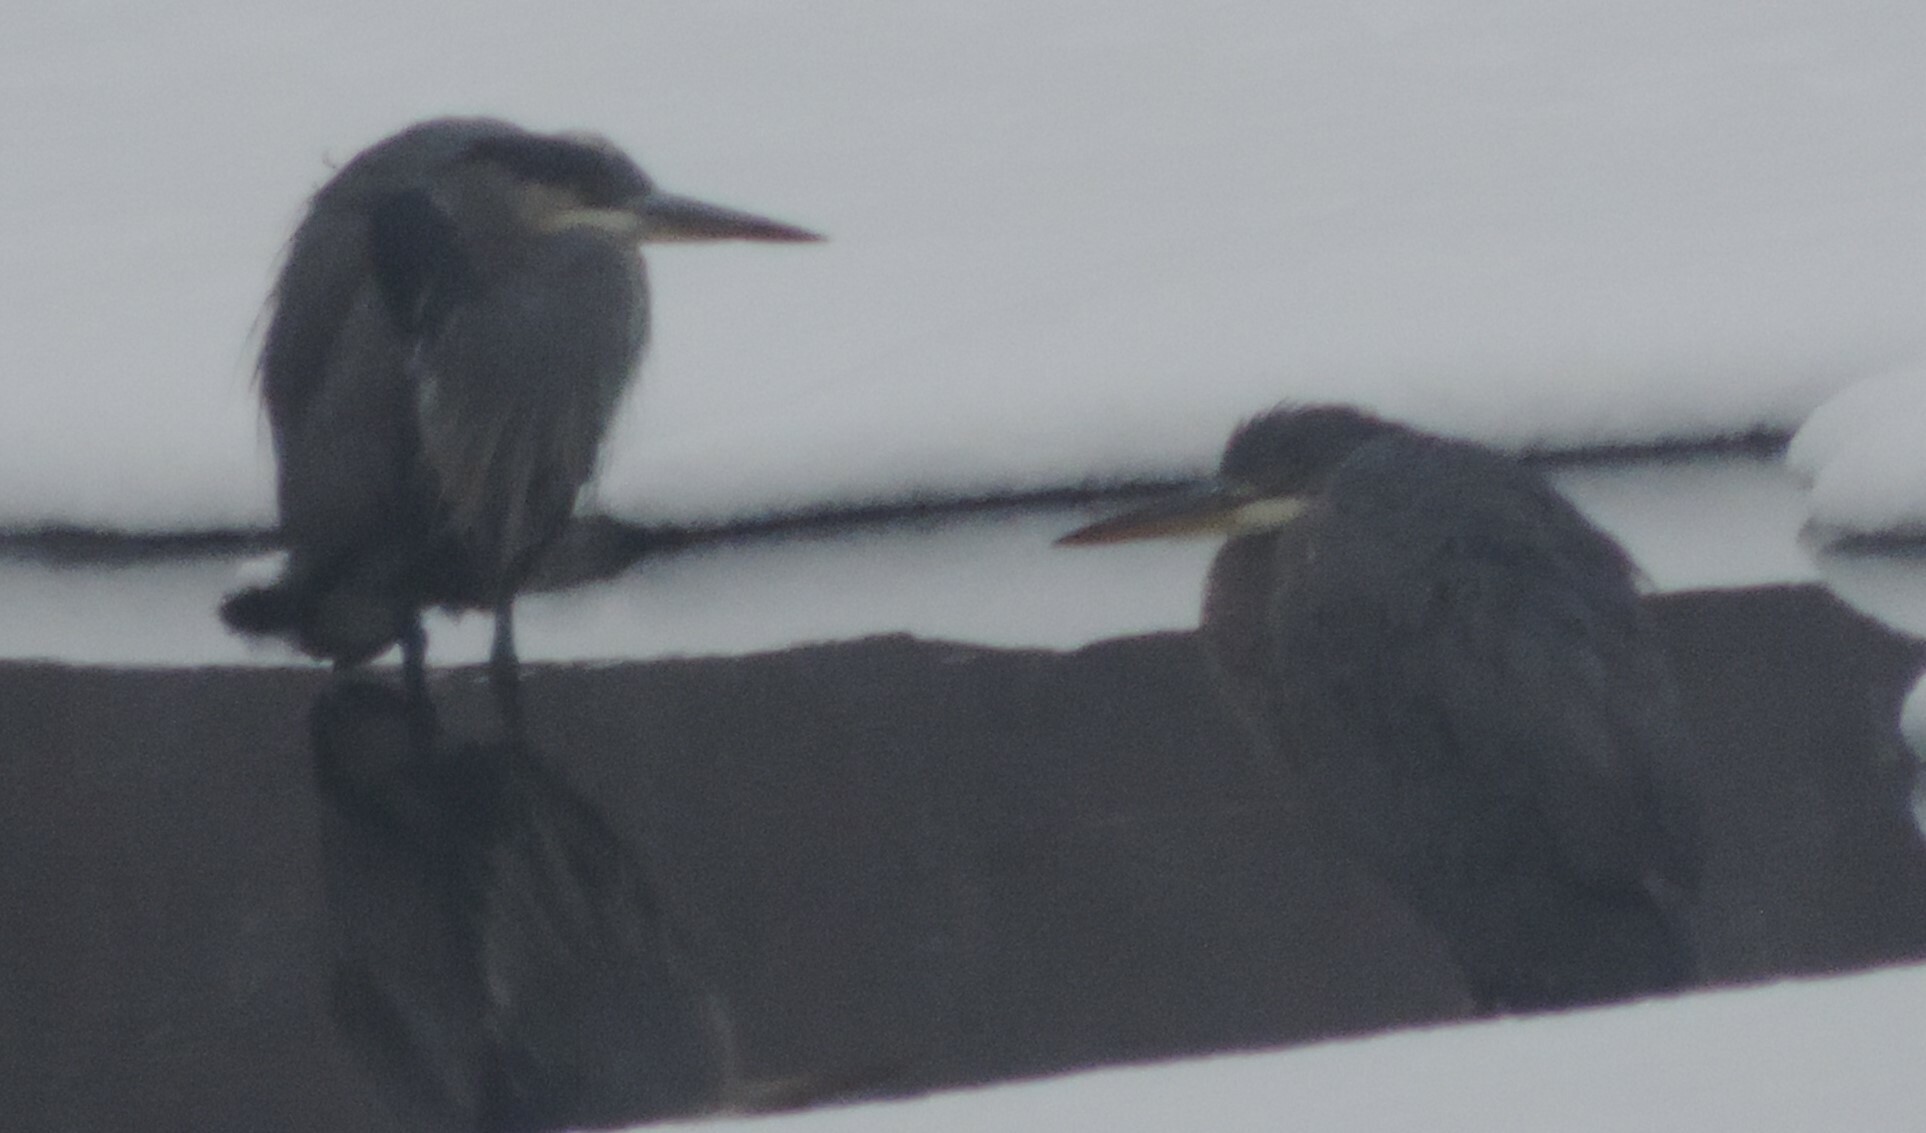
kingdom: Animalia
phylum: Chordata
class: Aves
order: Pelecaniformes
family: Ardeidae
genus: Ardea
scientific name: Ardea herodias
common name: Great blue heron
